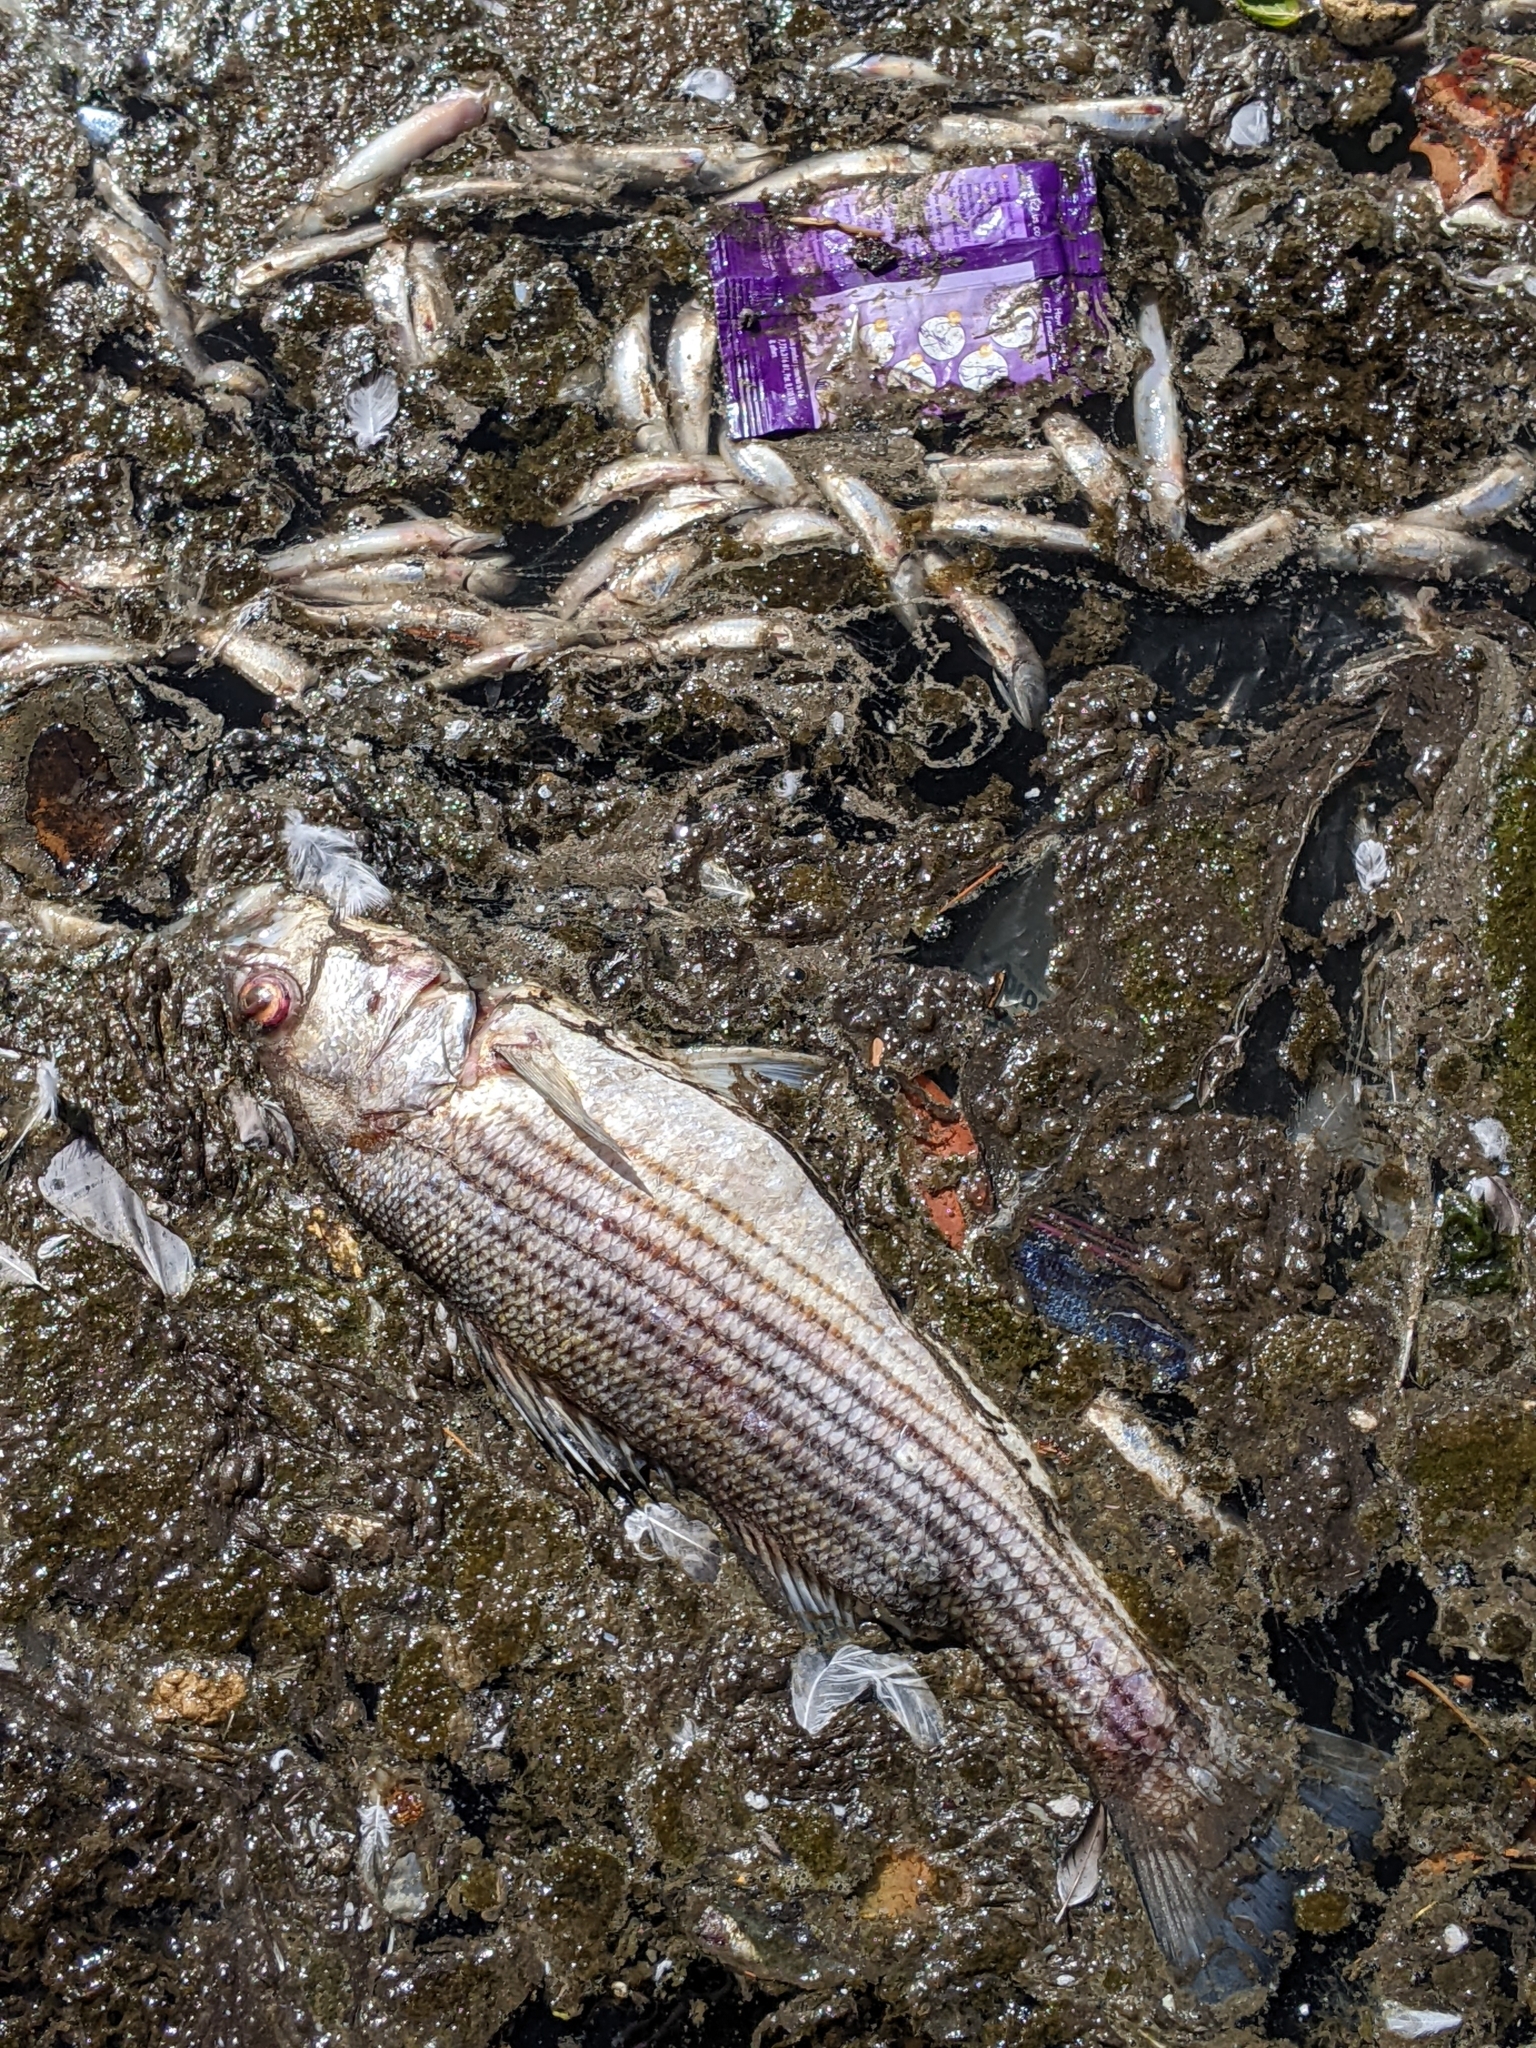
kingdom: Animalia
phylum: Chordata
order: Perciformes
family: Moronidae
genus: Morone
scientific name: Morone saxatilis
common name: Striped bass
